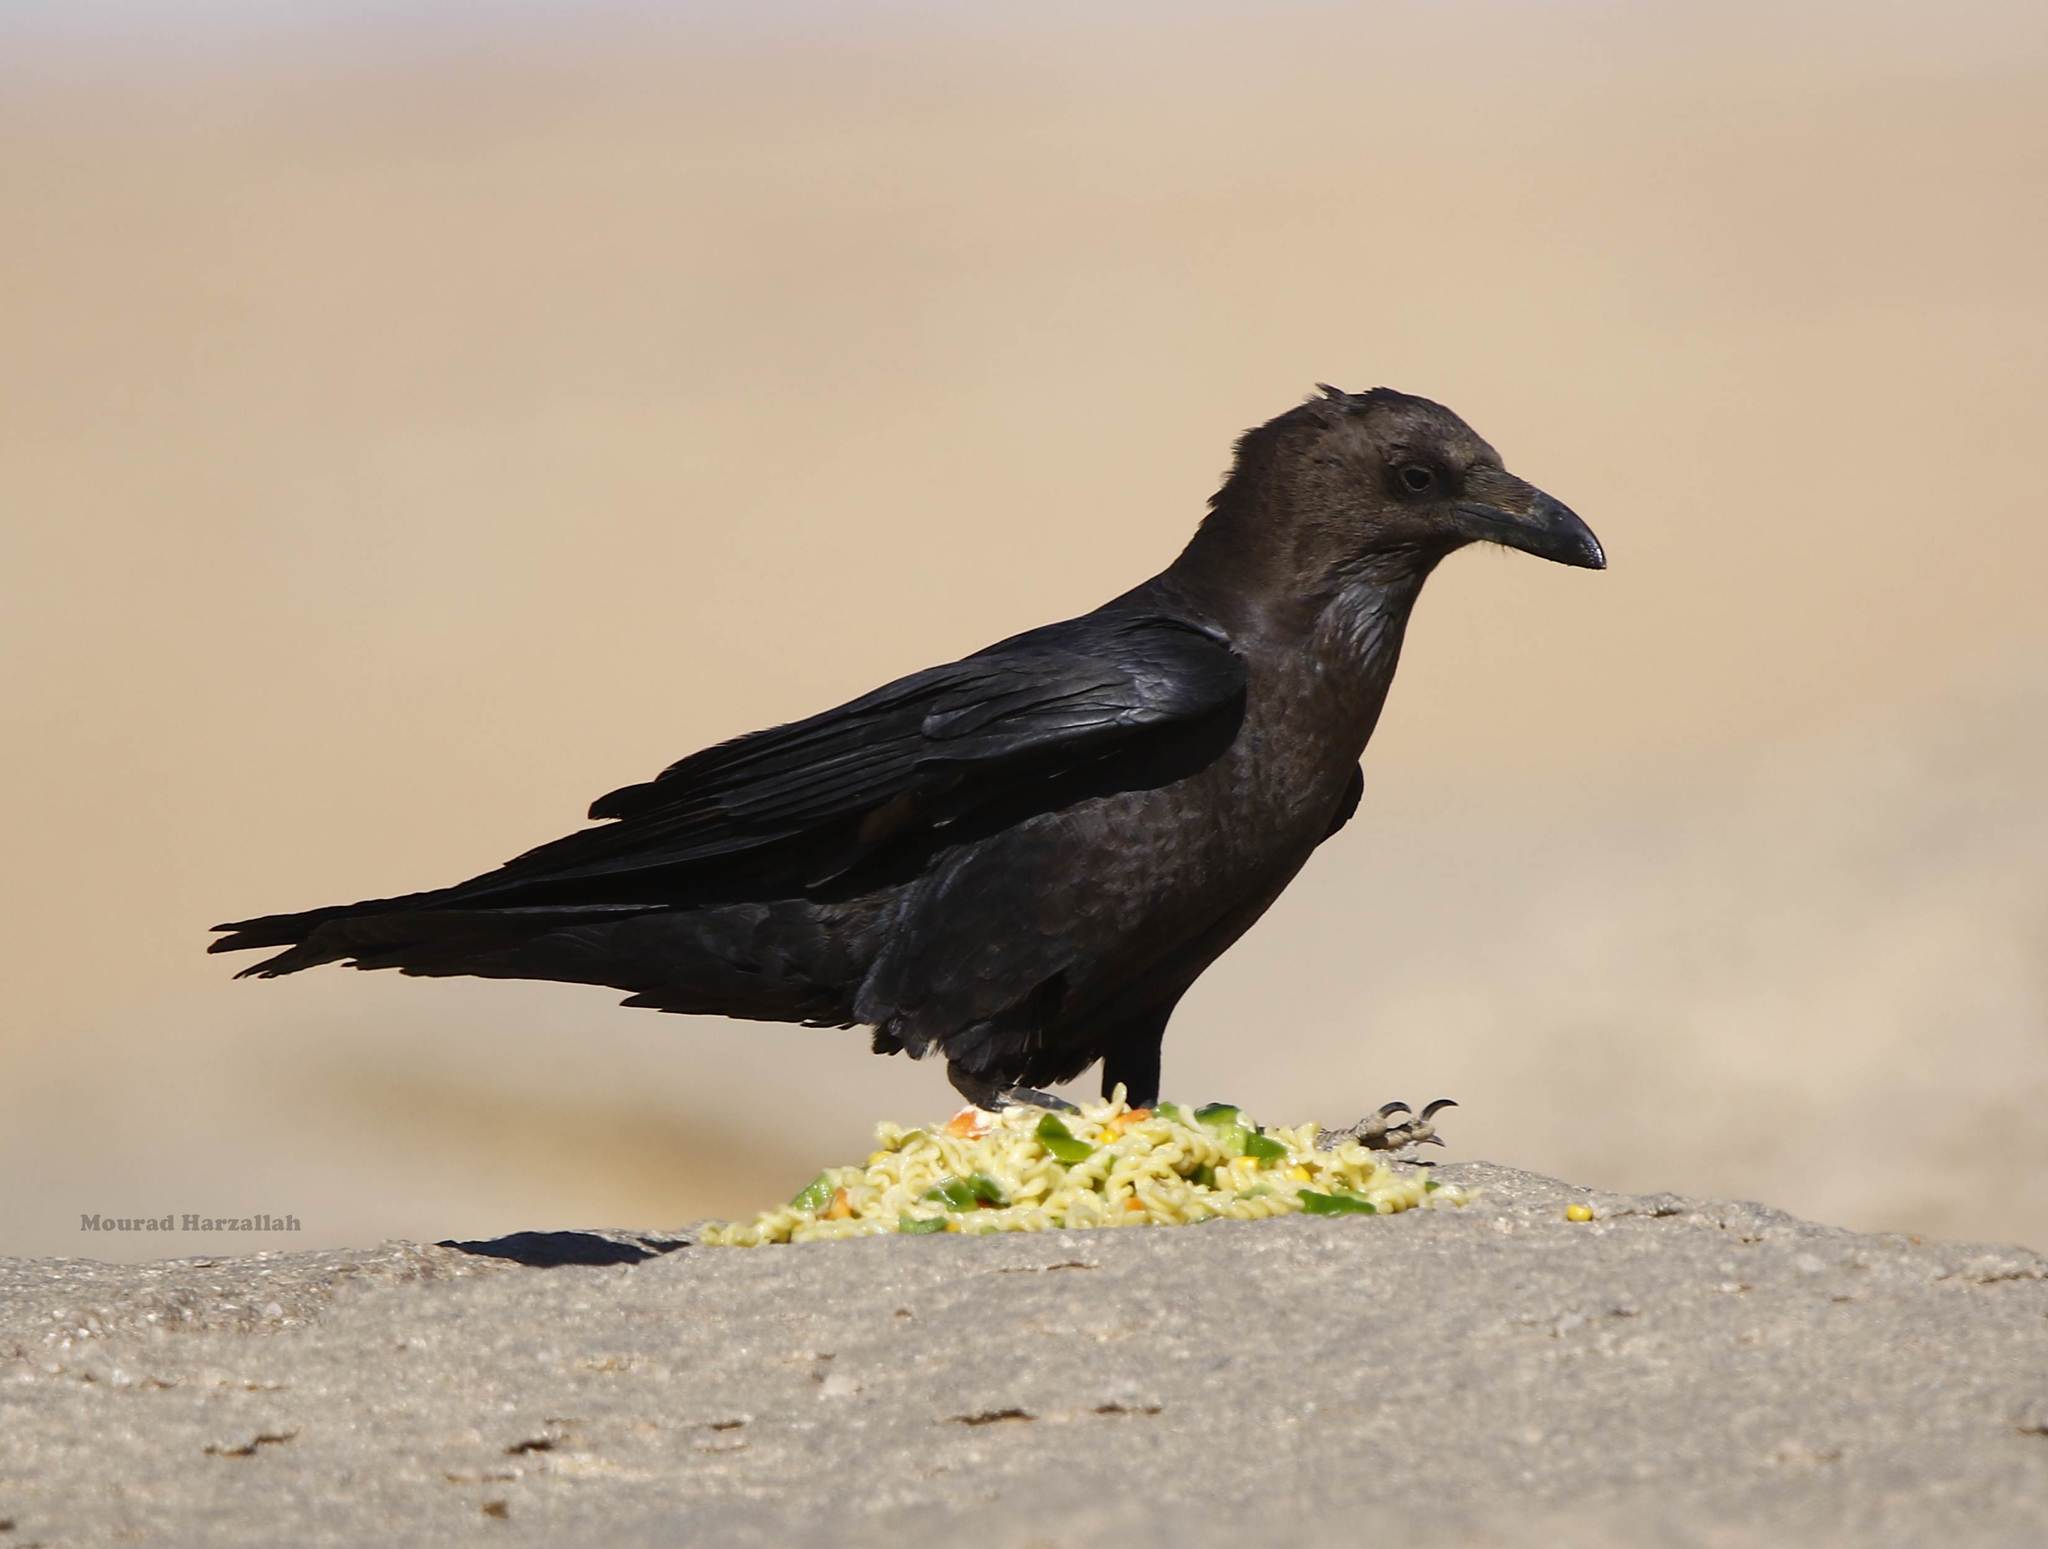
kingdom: Animalia
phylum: Chordata
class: Aves
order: Passeriformes
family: Corvidae
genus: Corvus
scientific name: Corvus ruficollis
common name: Brown-necked raven
